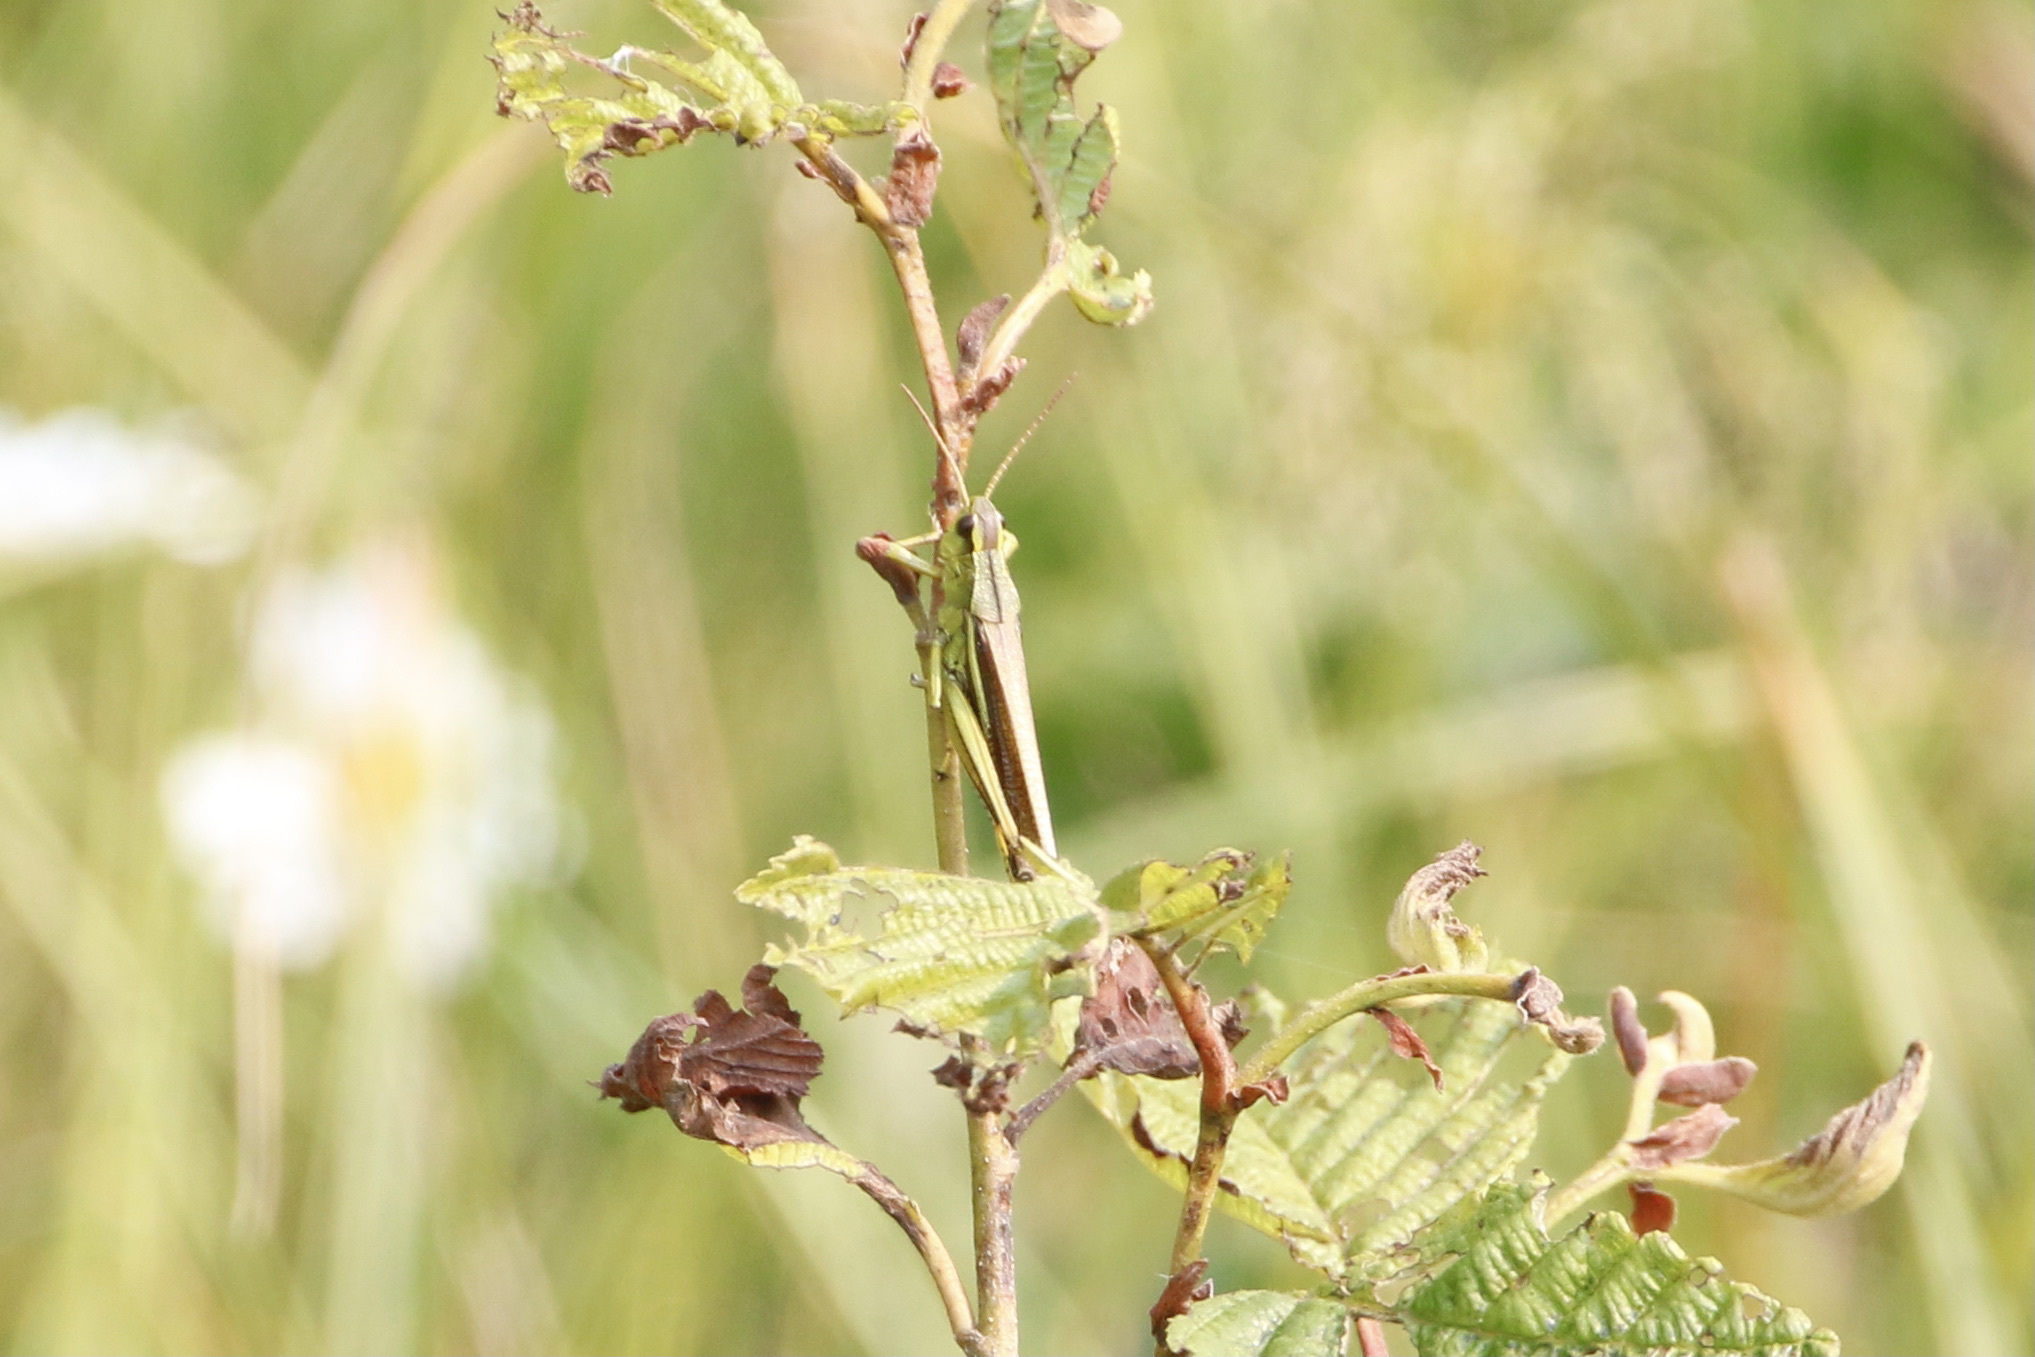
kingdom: Animalia
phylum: Arthropoda
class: Insecta
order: Orthoptera
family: Acrididae
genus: Stethophyma
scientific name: Stethophyma lineatum
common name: Striped sedge locust
